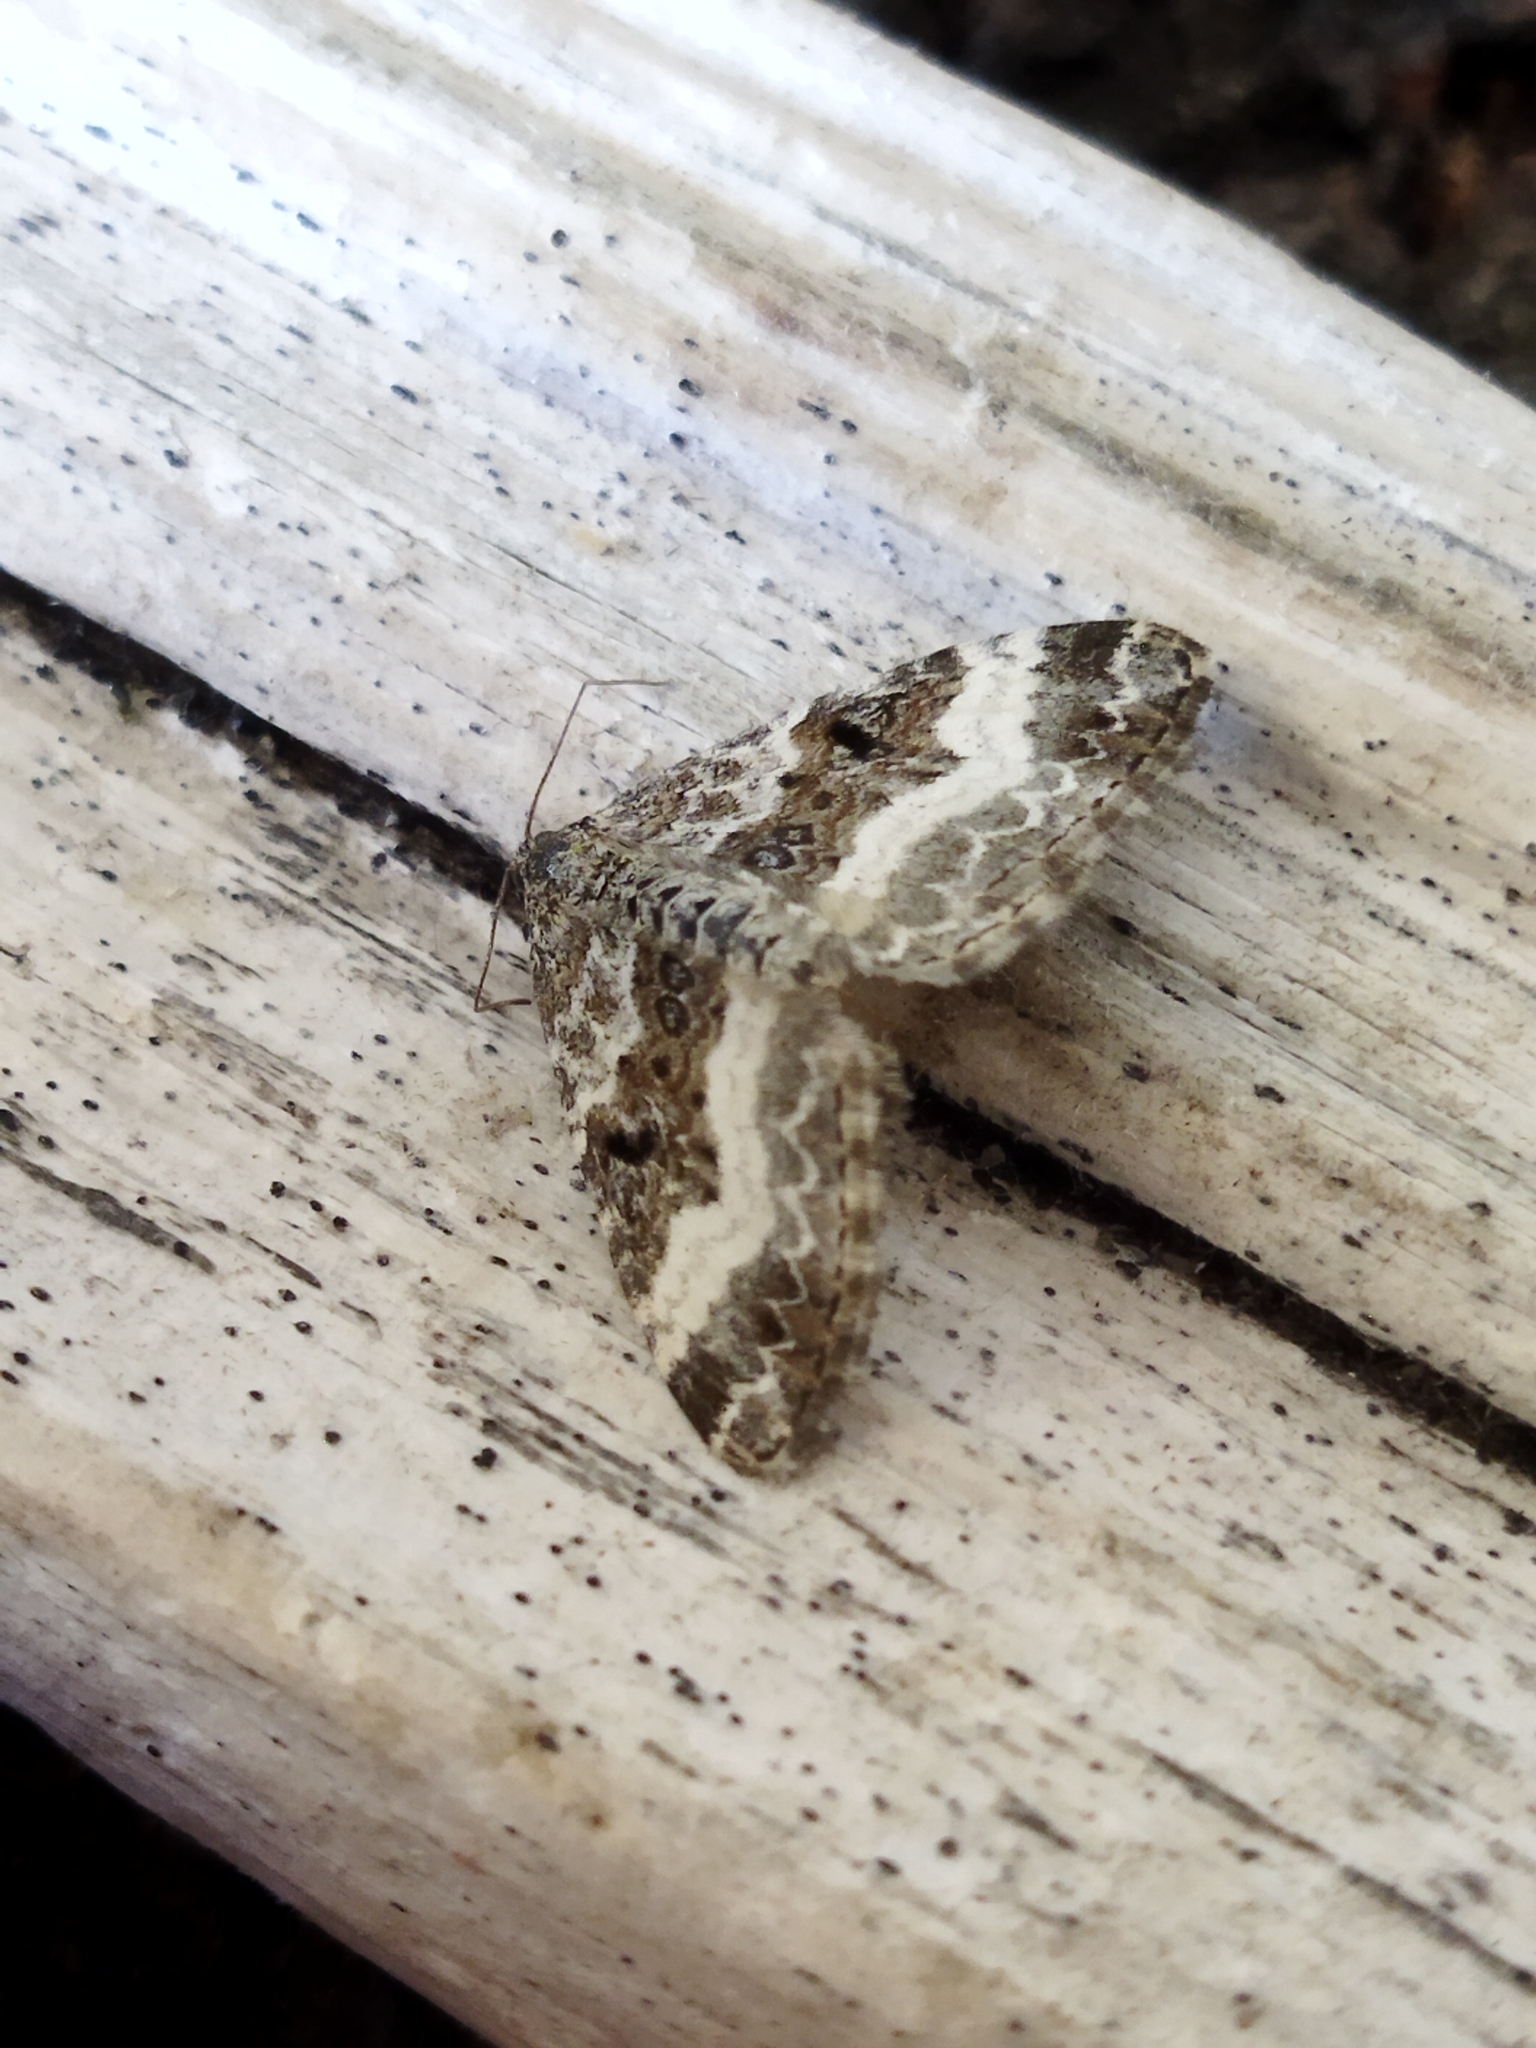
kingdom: Animalia
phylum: Arthropoda
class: Insecta
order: Lepidoptera
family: Geometridae
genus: Epirrhoe
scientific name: Epirrhoe alternata
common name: Common carpet
